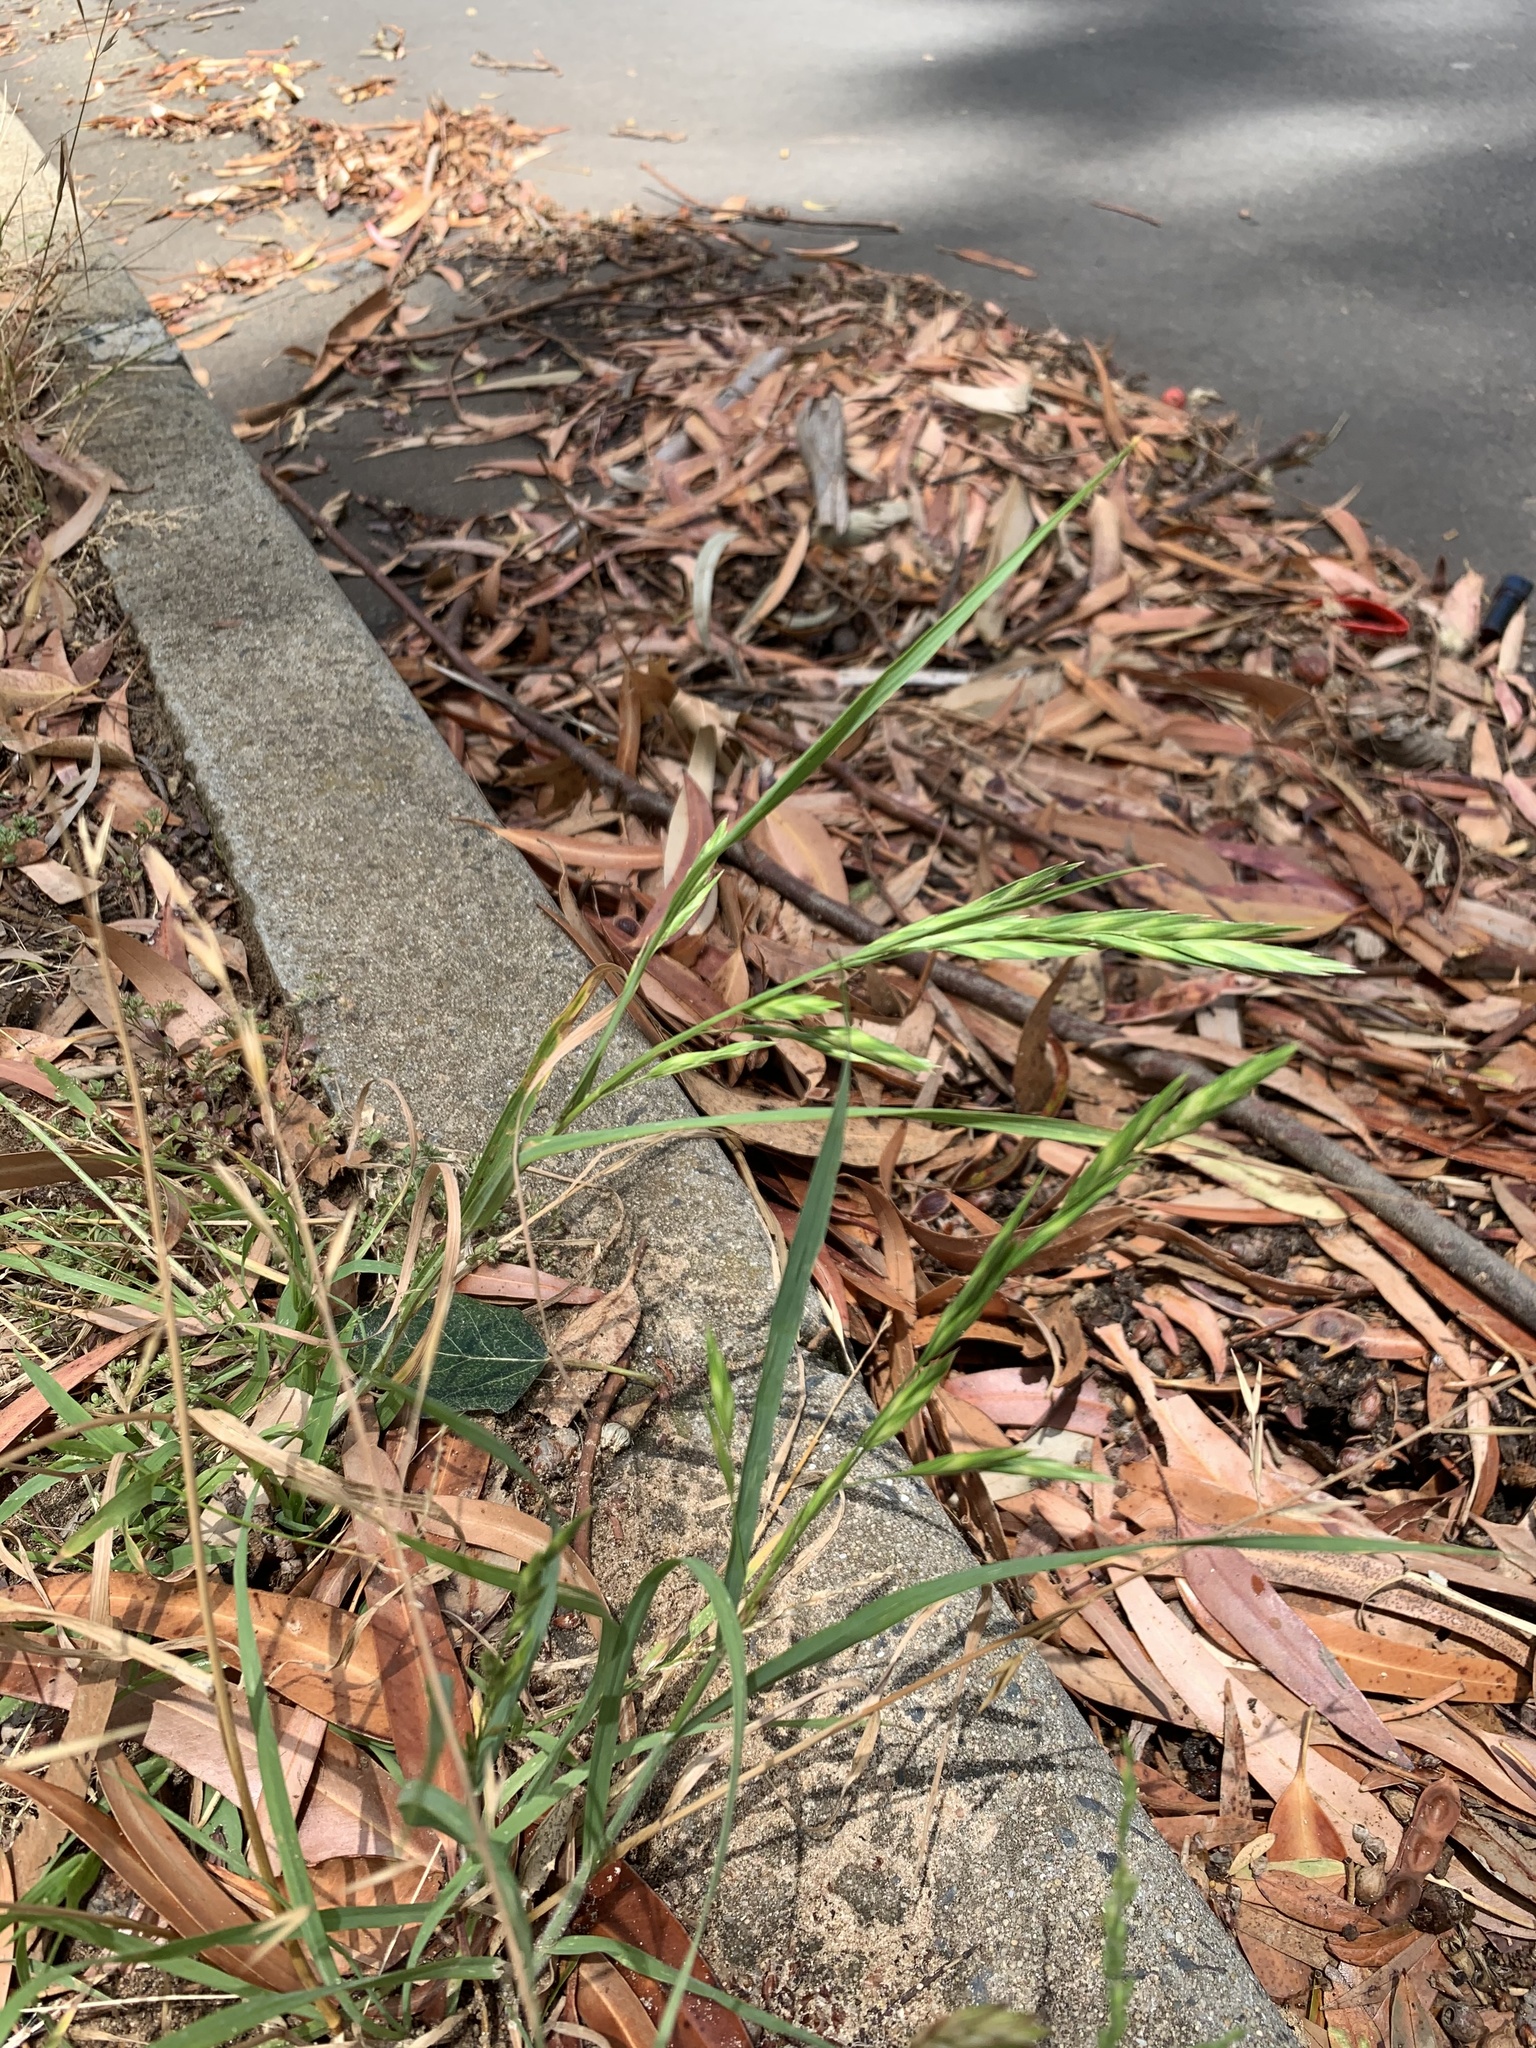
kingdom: Plantae
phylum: Tracheophyta
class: Liliopsida
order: Poales
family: Poaceae
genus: Bromus
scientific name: Bromus catharticus
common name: Rescuegrass
